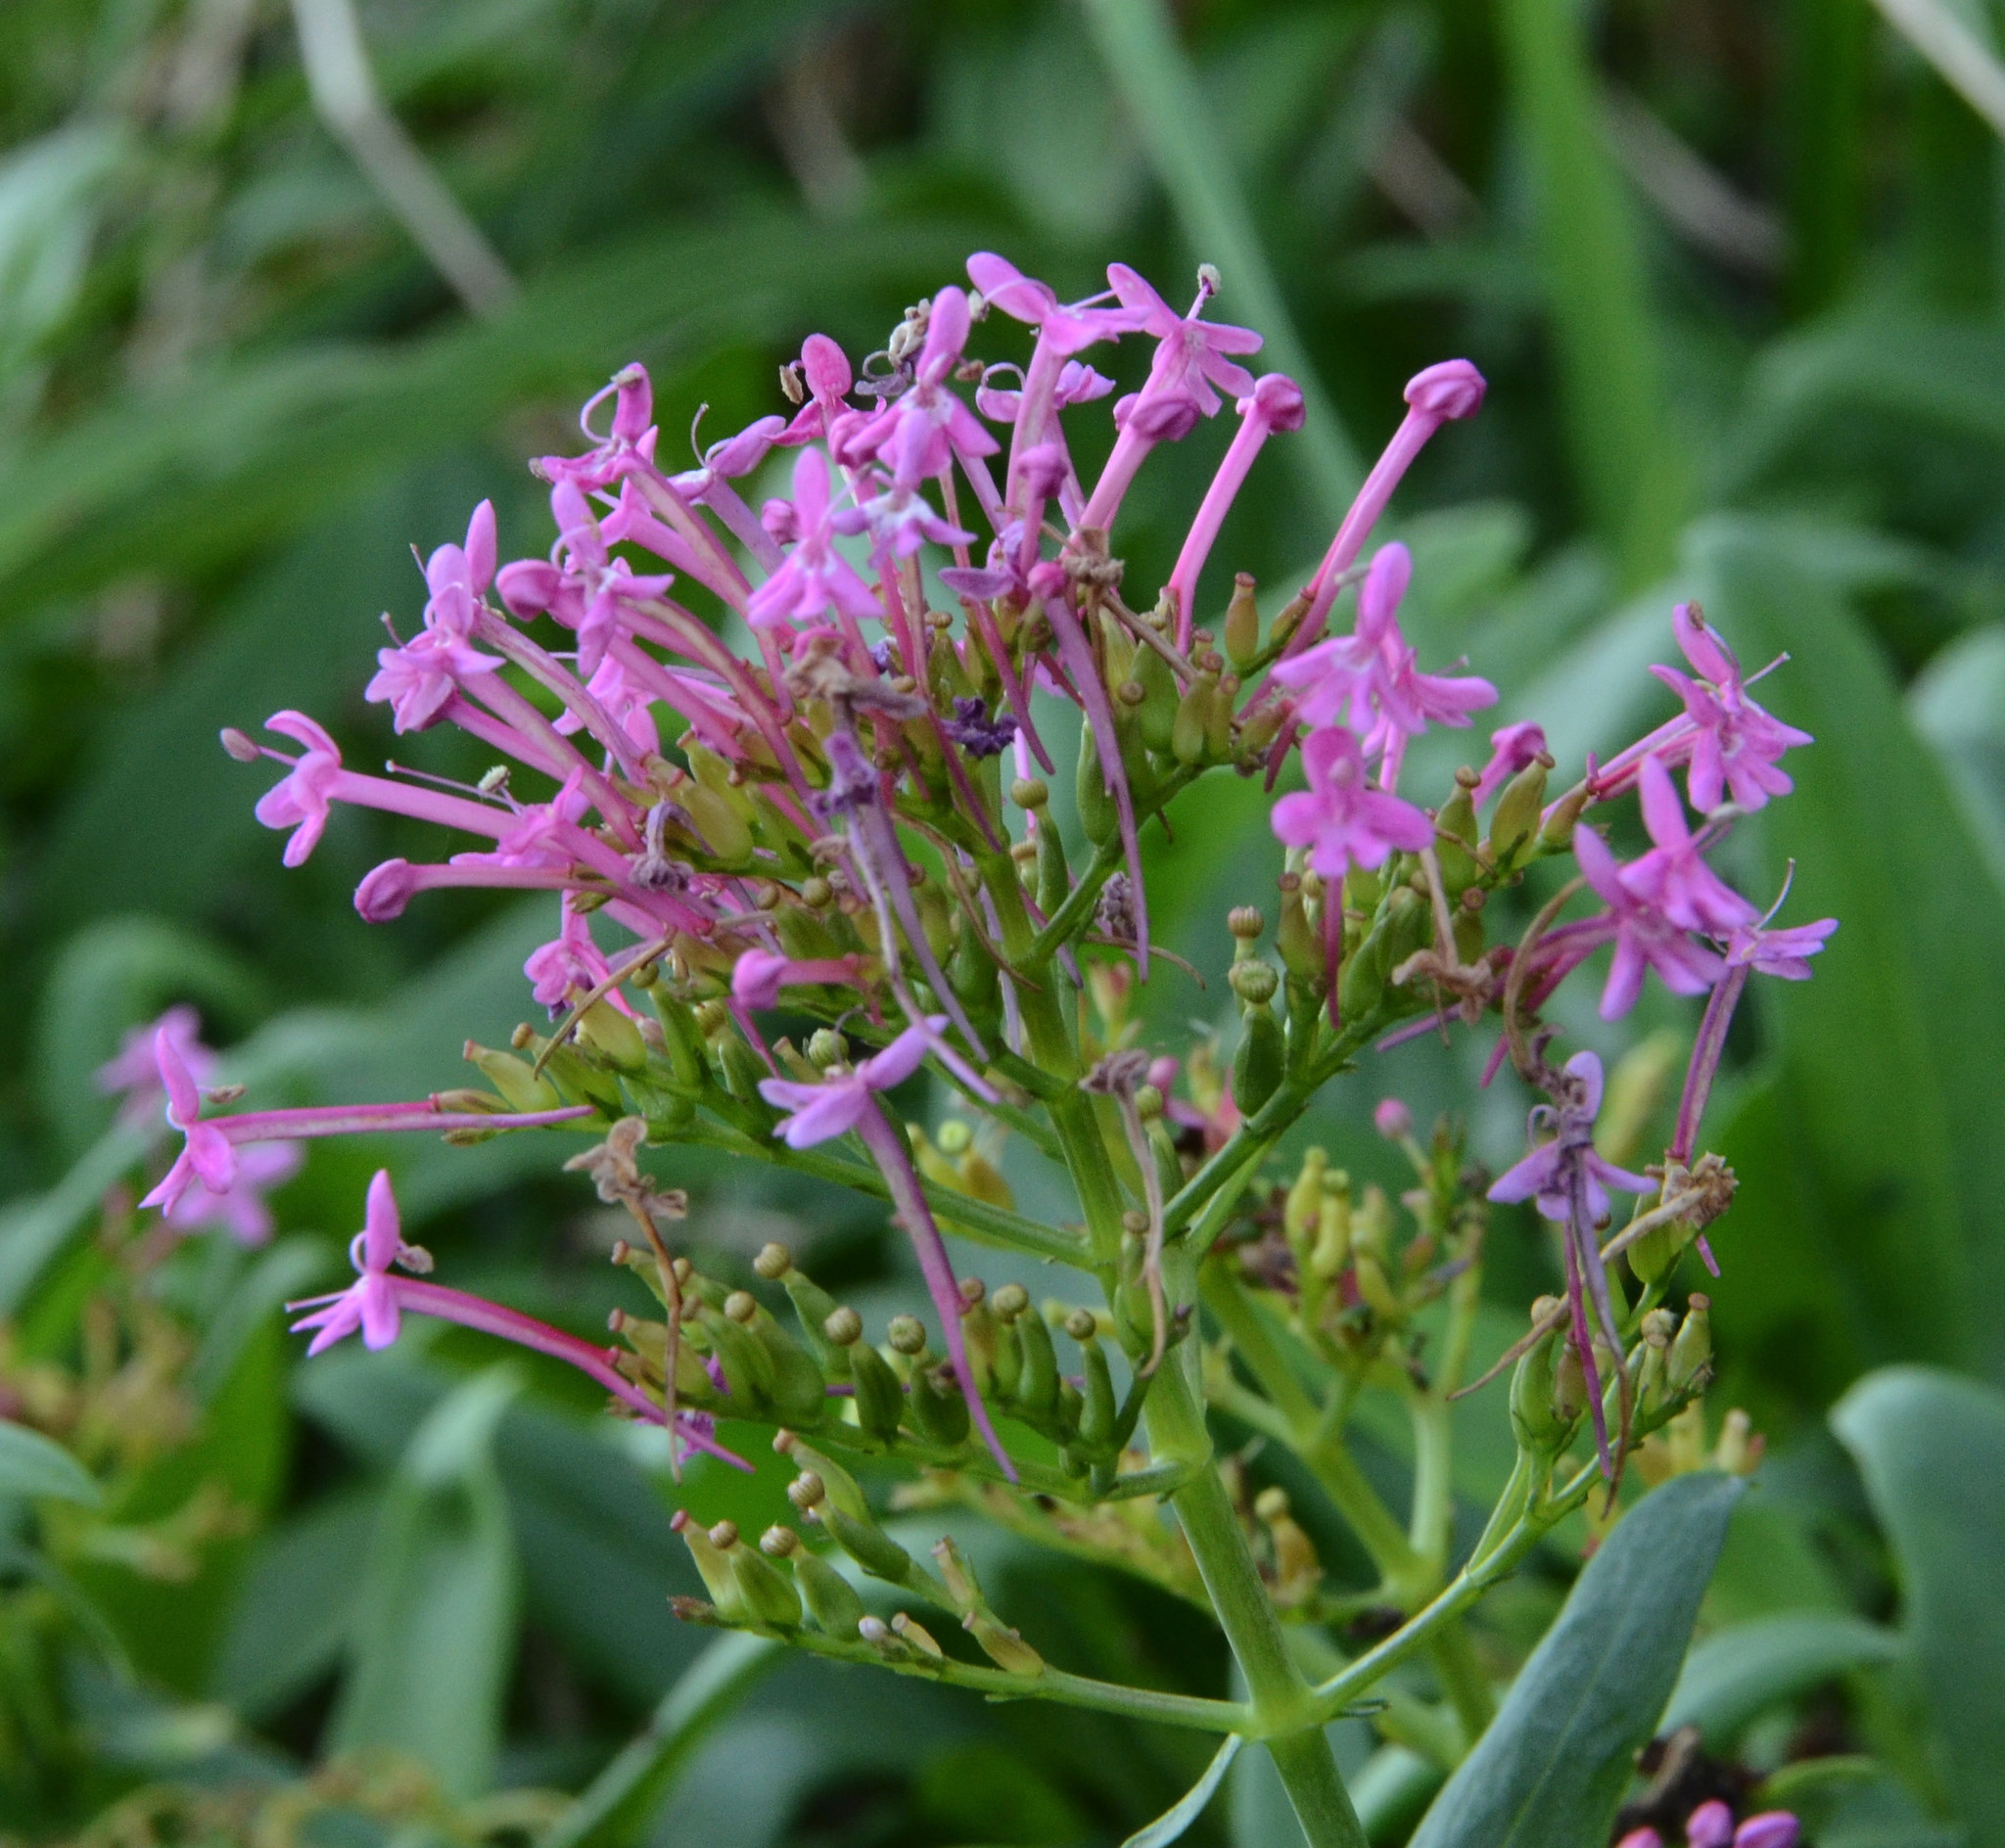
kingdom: Plantae
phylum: Tracheophyta
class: Magnoliopsida
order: Dipsacales
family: Caprifoliaceae
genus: Centranthus
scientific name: Centranthus ruber
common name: Red valerian
